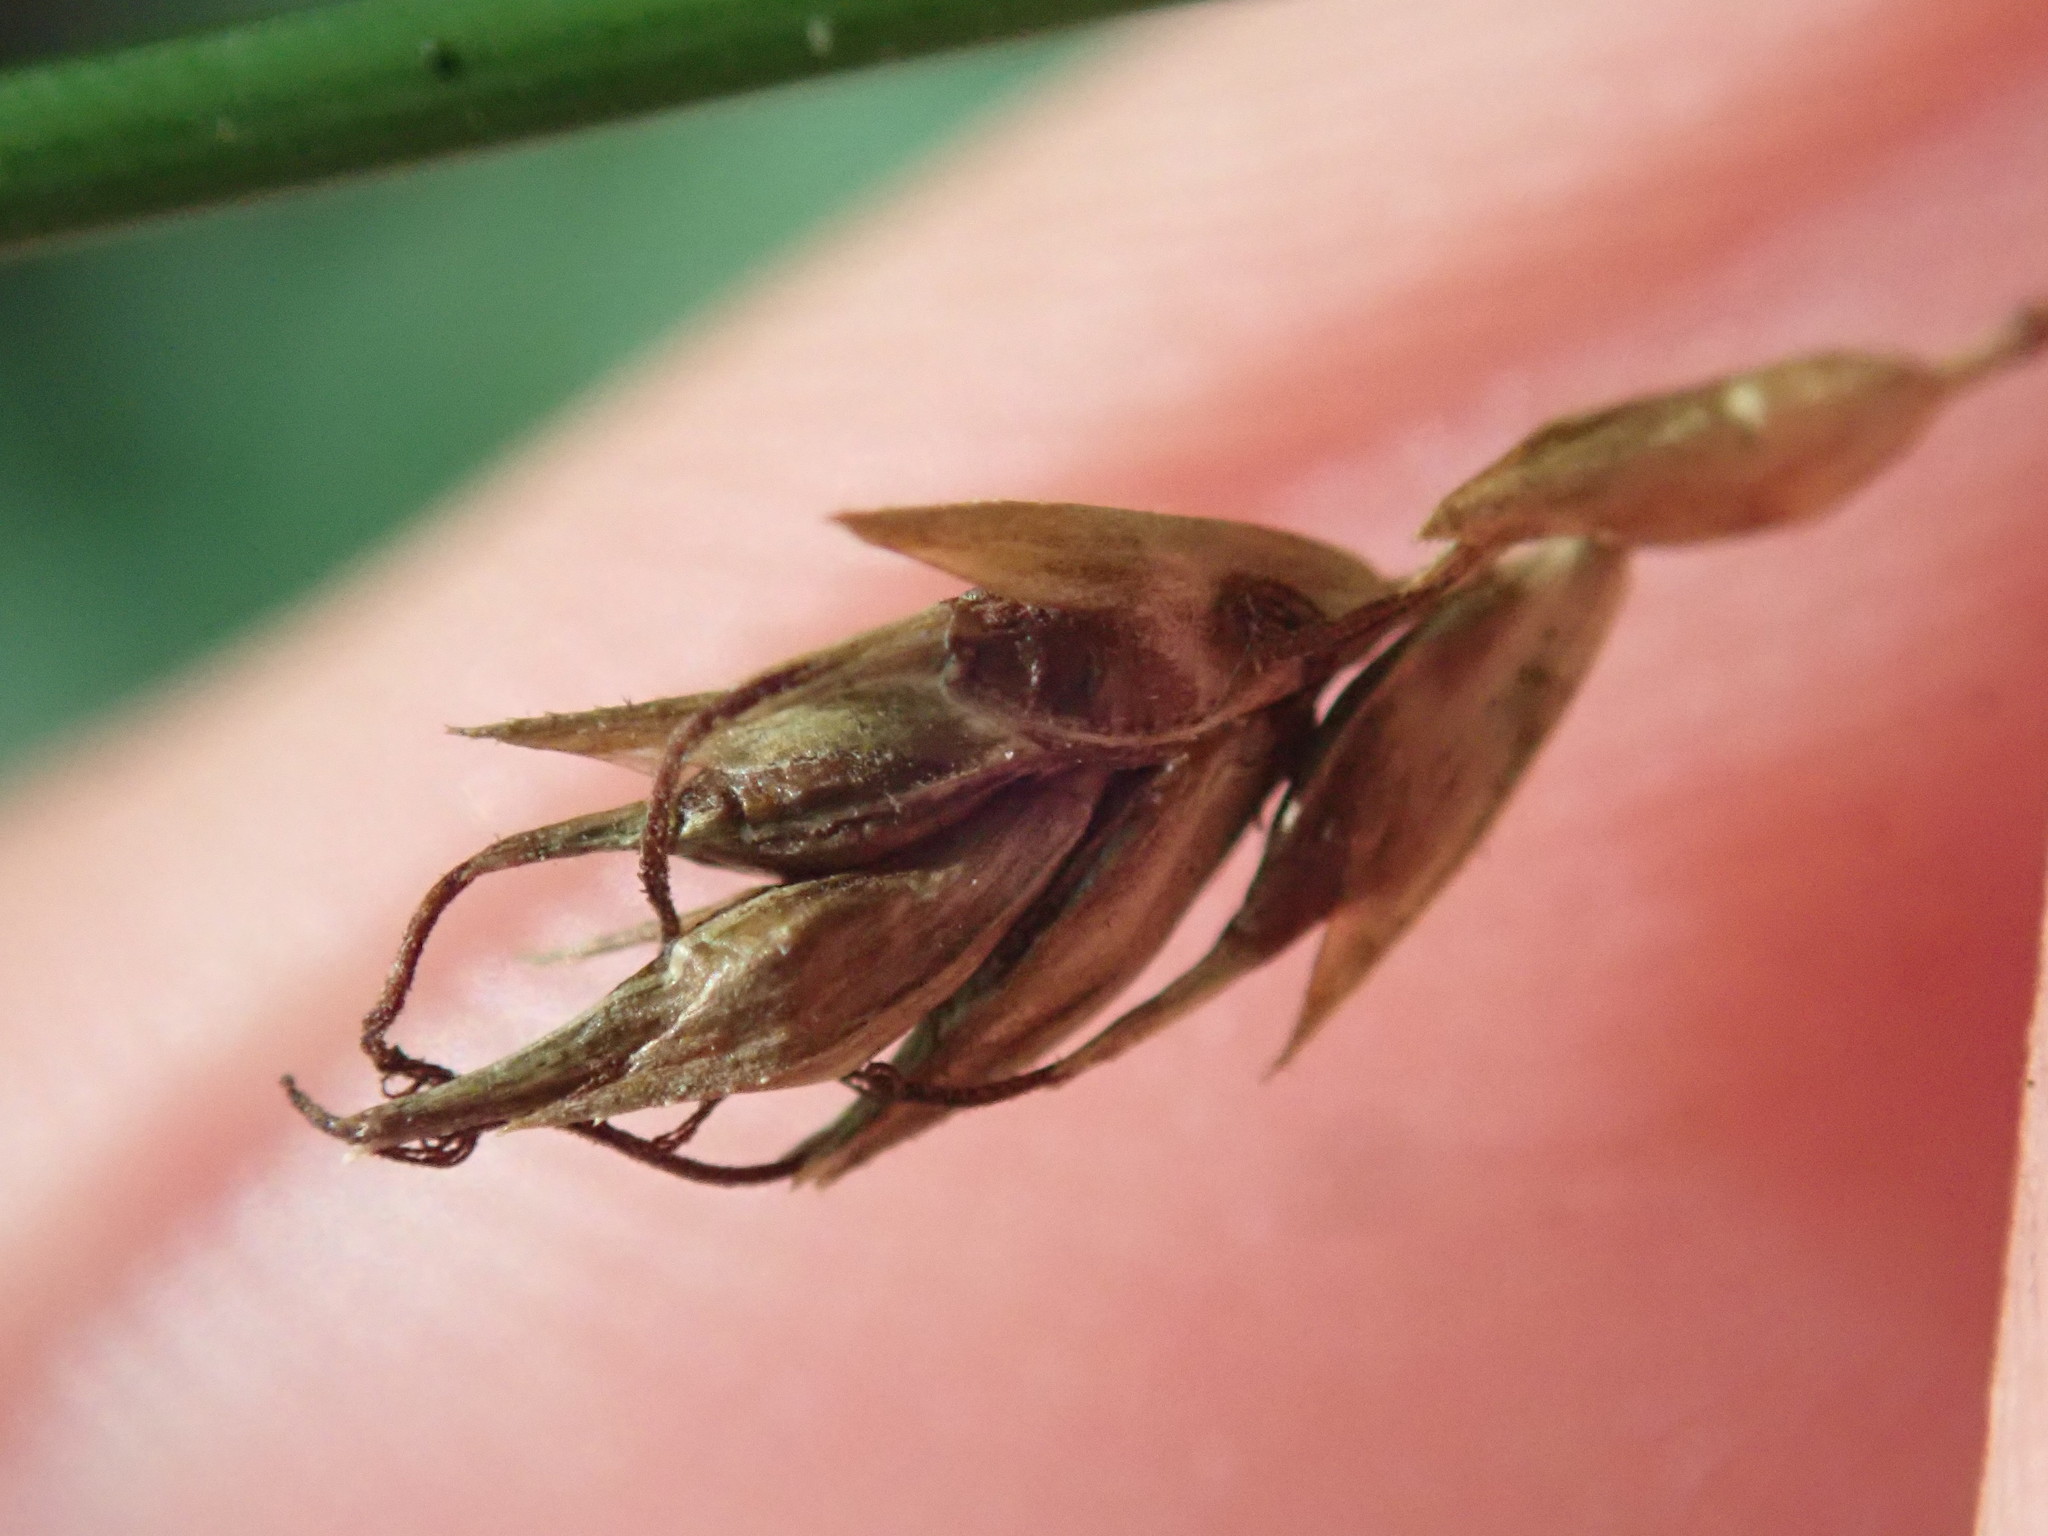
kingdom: Plantae
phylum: Tracheophyta
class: Liliopsida
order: Poales
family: Cyperaceae
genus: Carex
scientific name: Carex sylvatica
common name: Wood-sedge
